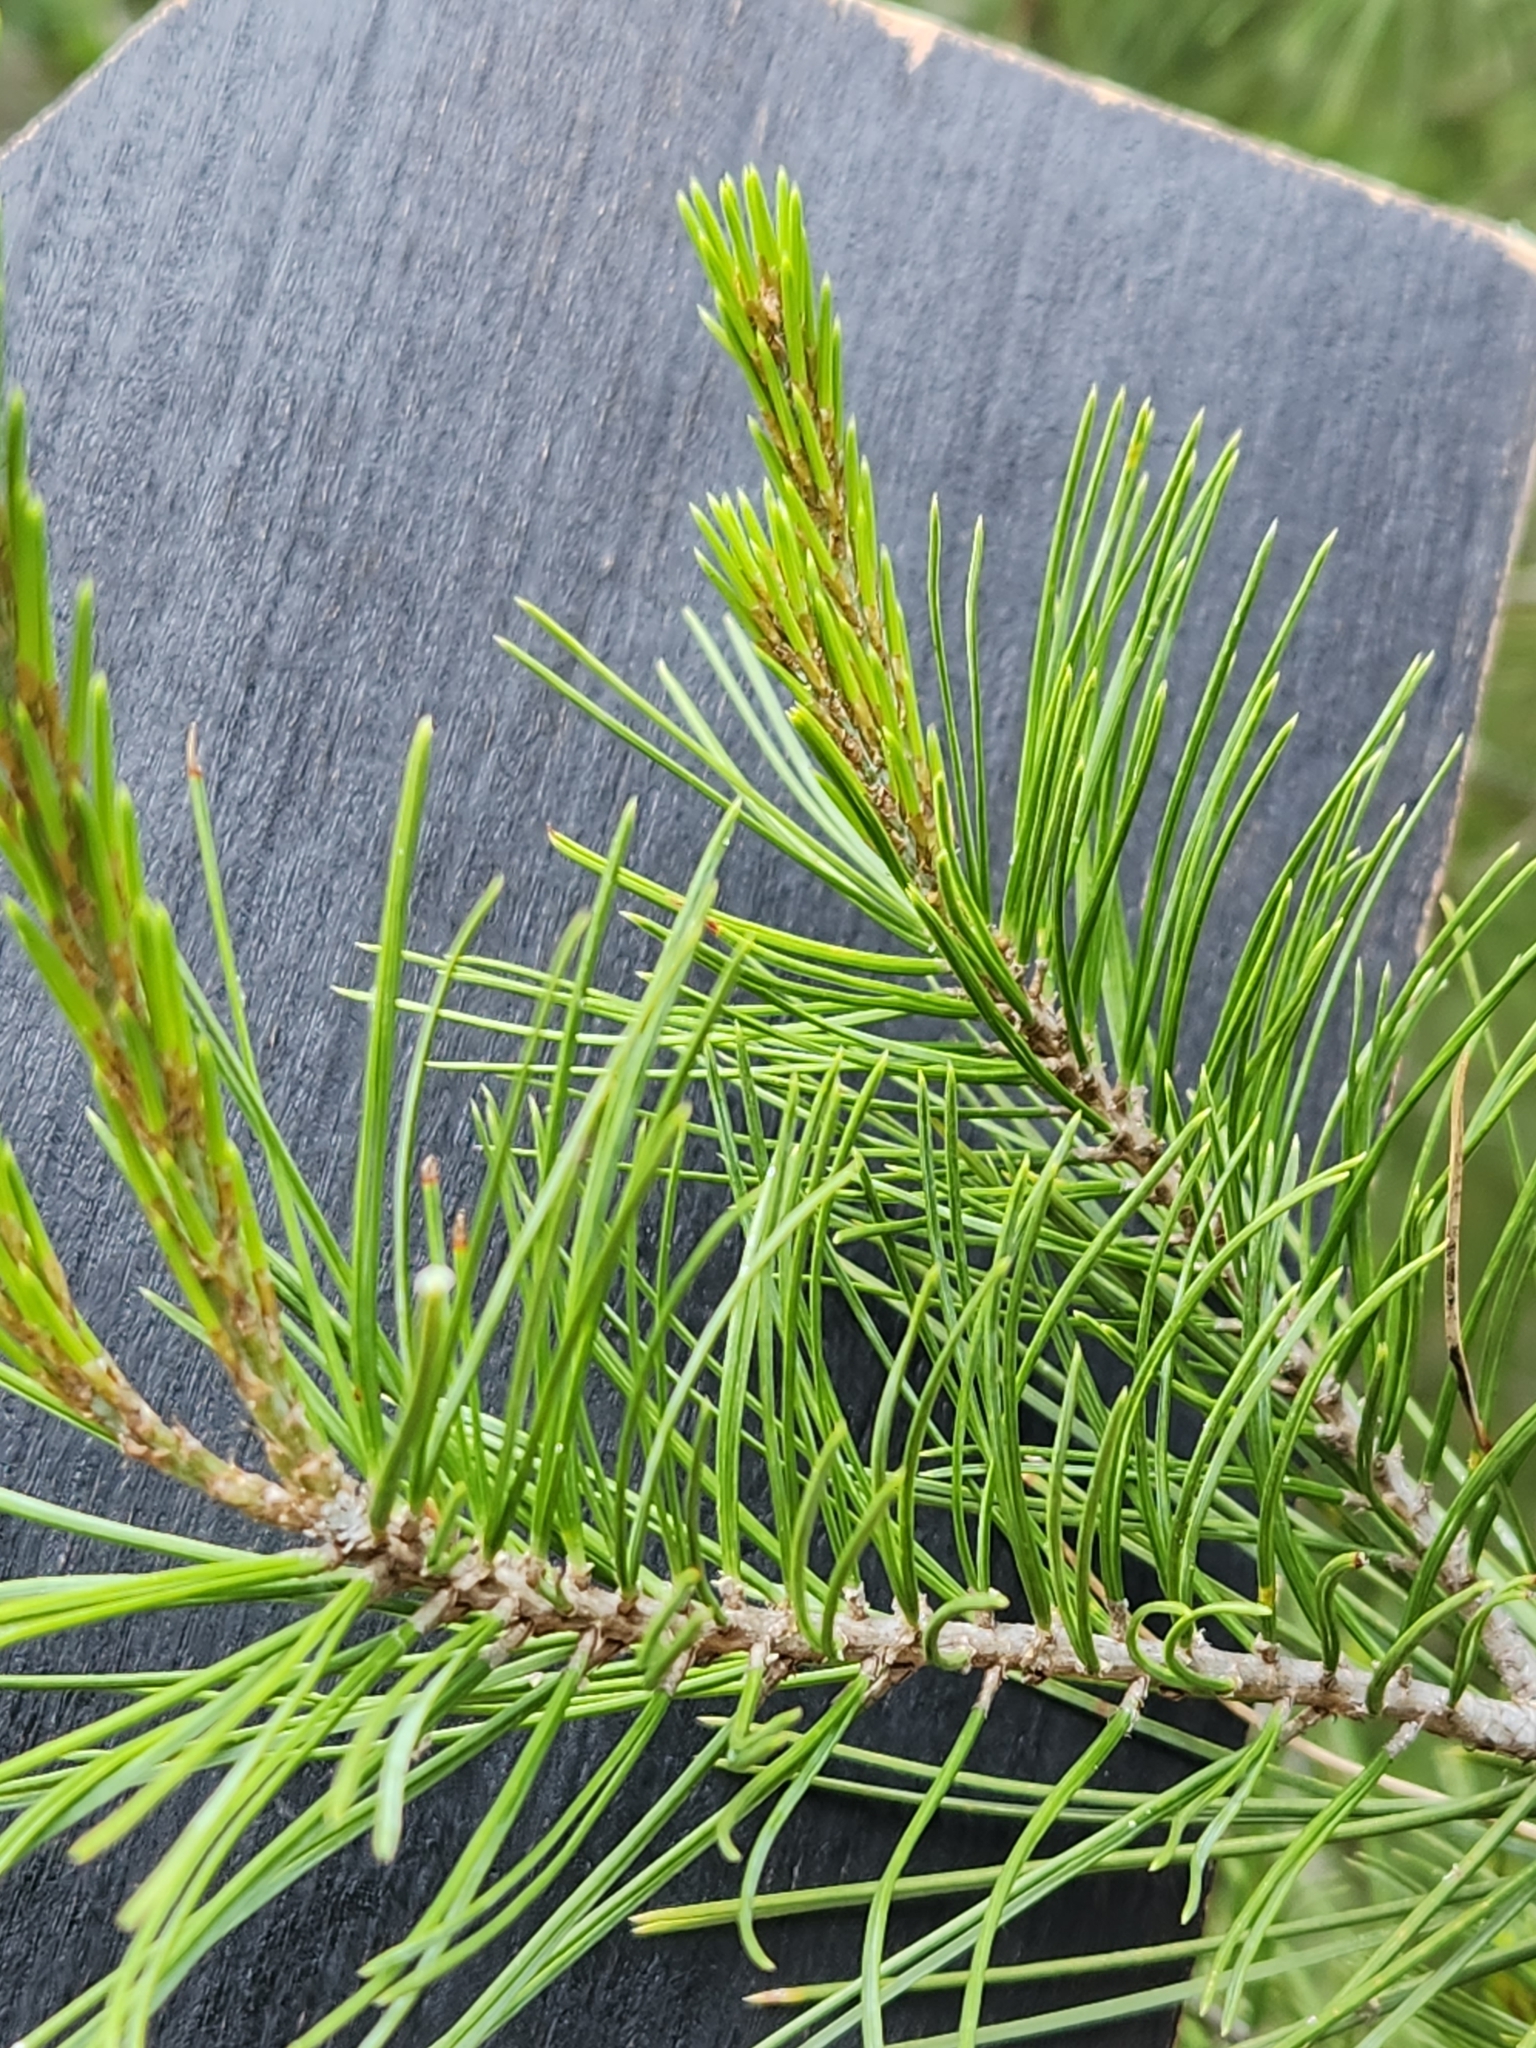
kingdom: Plantae
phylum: Tracheophyta
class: Pinopsida
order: Pinales
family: Pinaceae
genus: Pinus
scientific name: Pinus remota
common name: Nut pine
